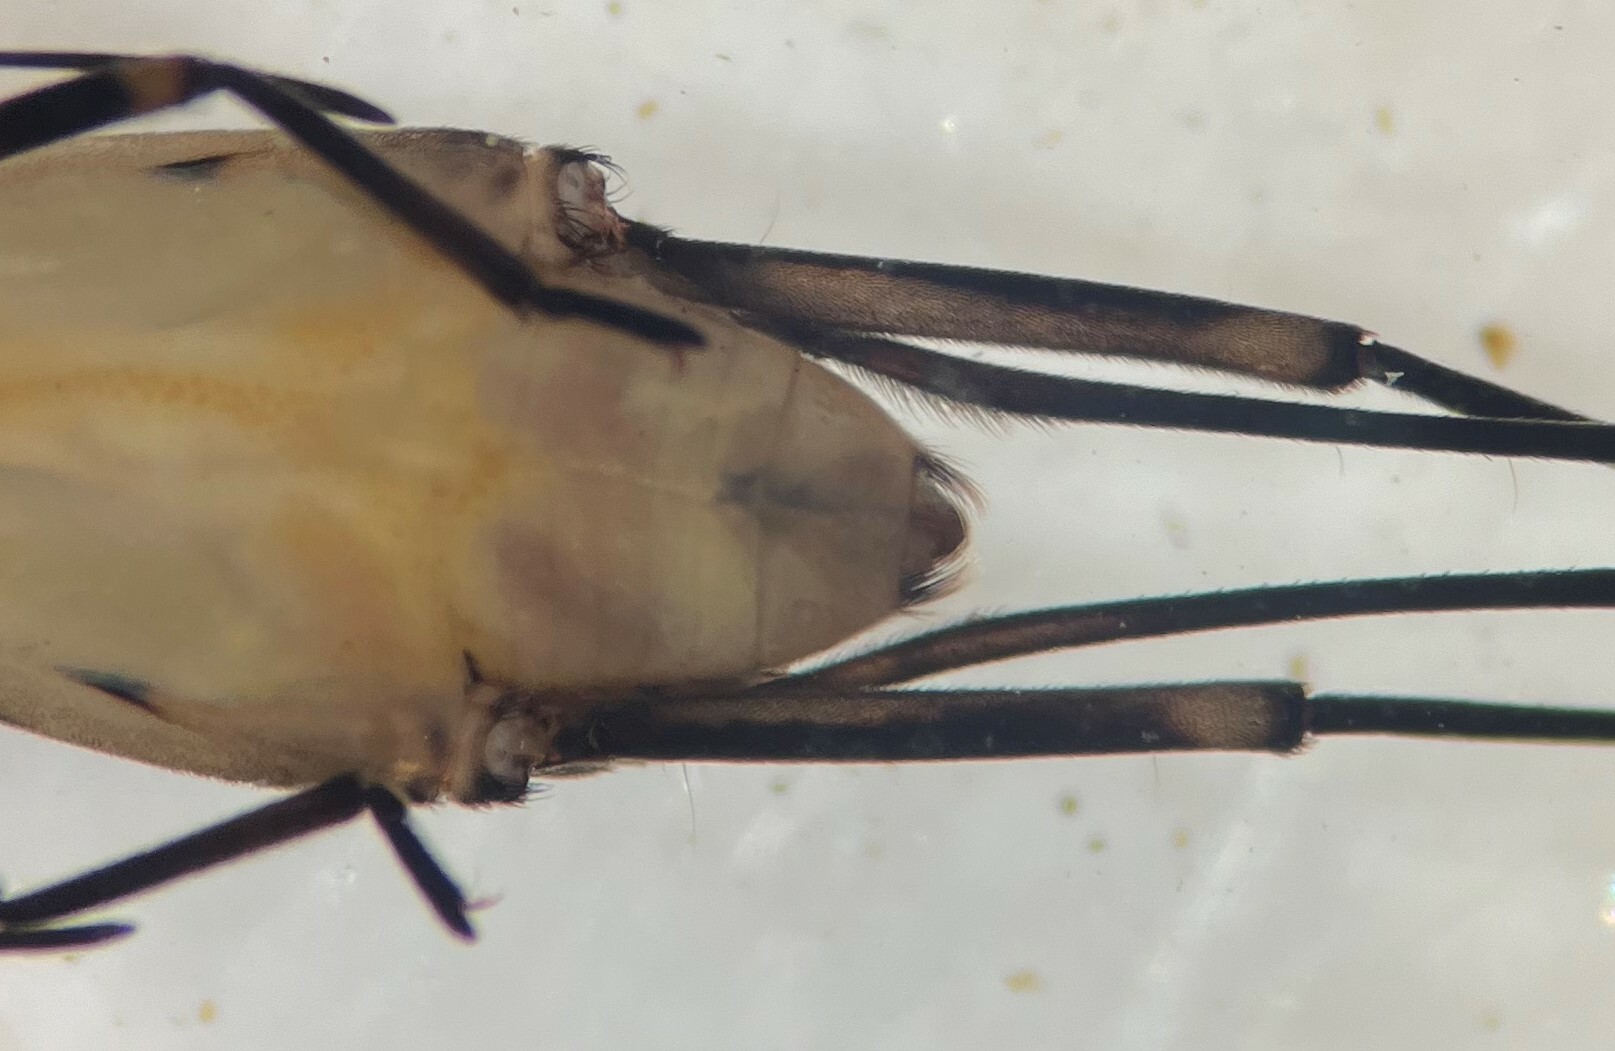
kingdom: Animalia
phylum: Arthropoda
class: Insecta
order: Hemiptera
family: Gerridae
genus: Trepobates
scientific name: Trepobates becki
